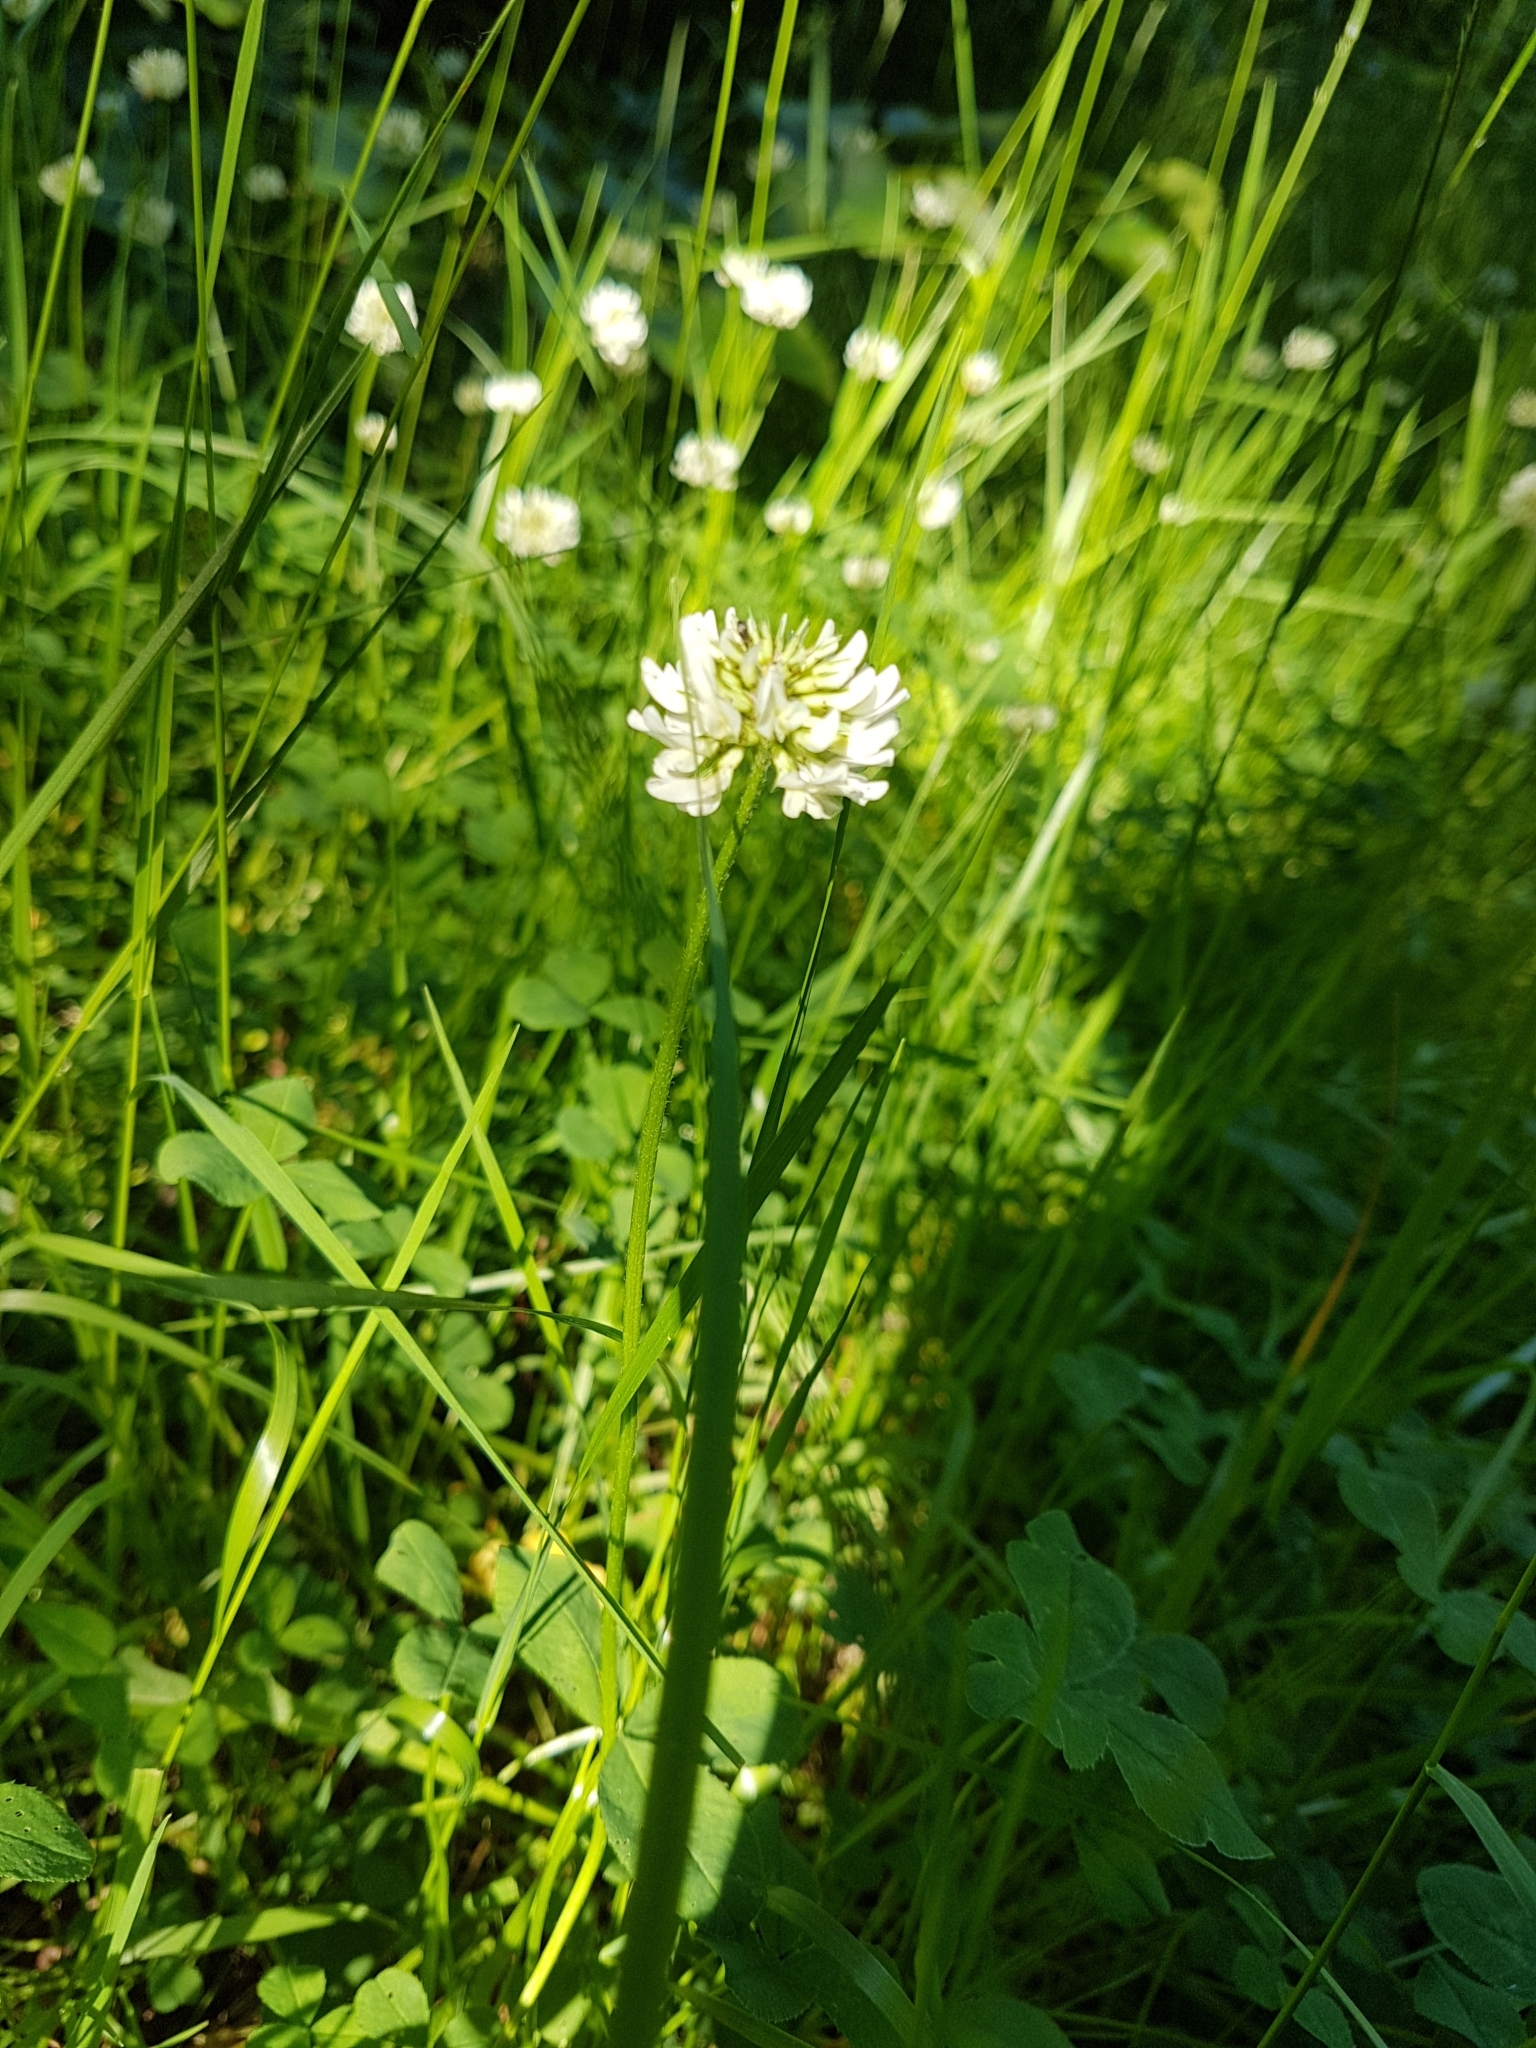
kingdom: Plantae
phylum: Tracheophyta
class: Magnoliopsida
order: Fabales
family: Fabaceae
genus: Trifolium
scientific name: Trifolium repens
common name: White clover
